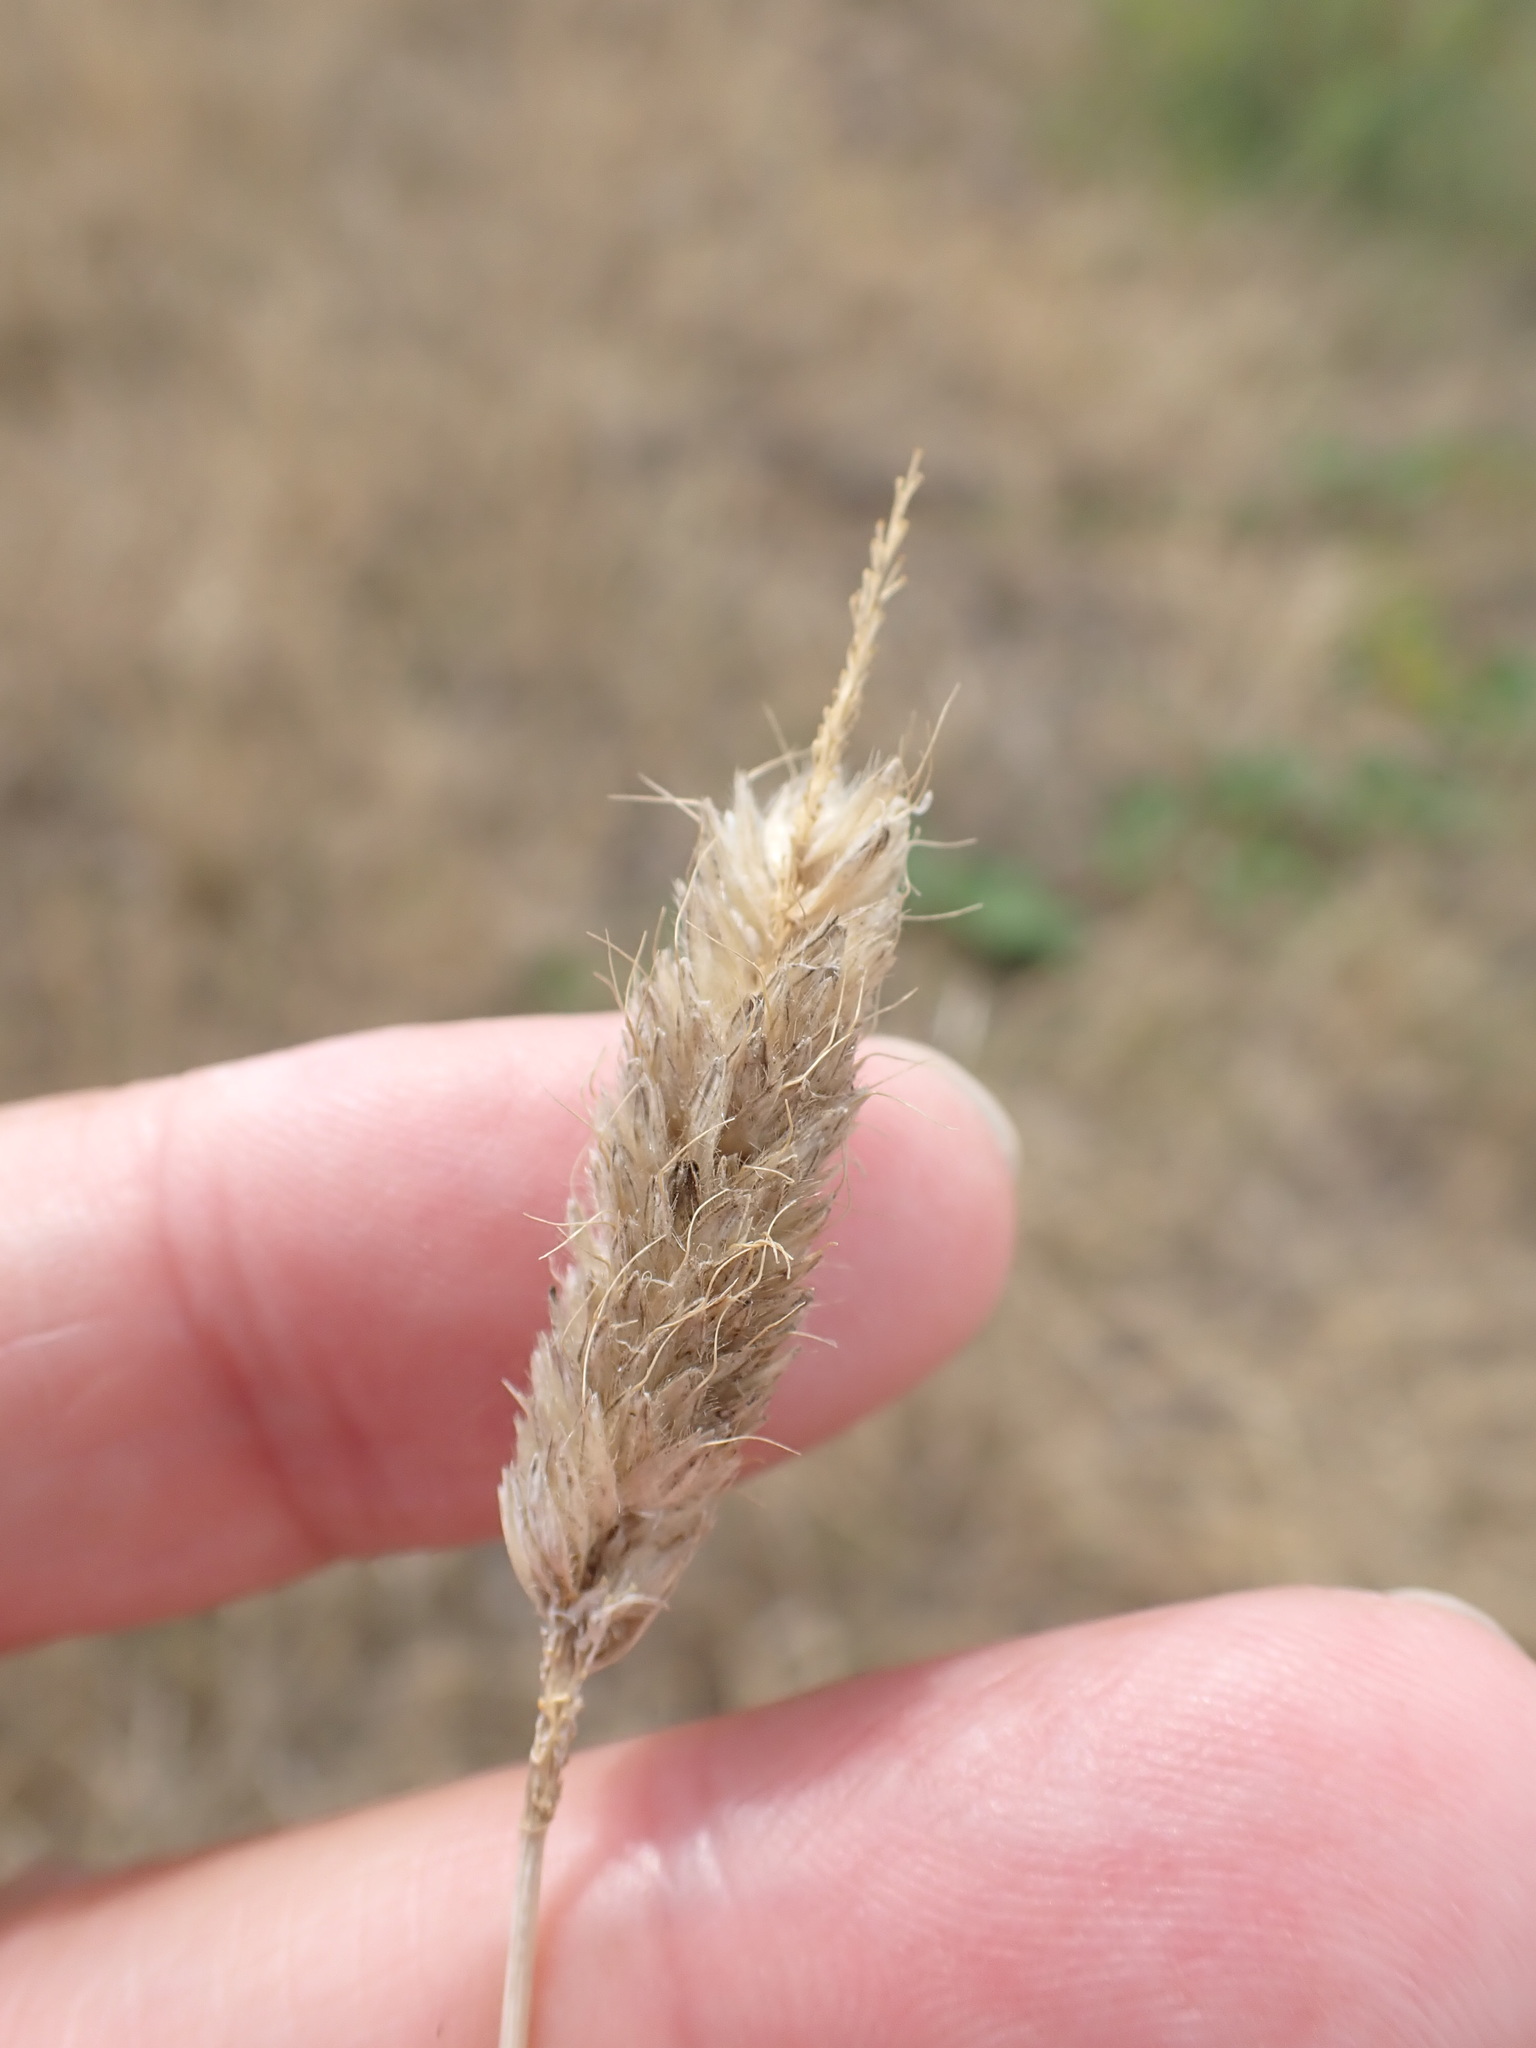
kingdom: Plantae
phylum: Tracheophyta
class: Liliopsida
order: Poales
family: Poaceae
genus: Alopecurus
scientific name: Alopecurus pratensis
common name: Meadow foxtail
